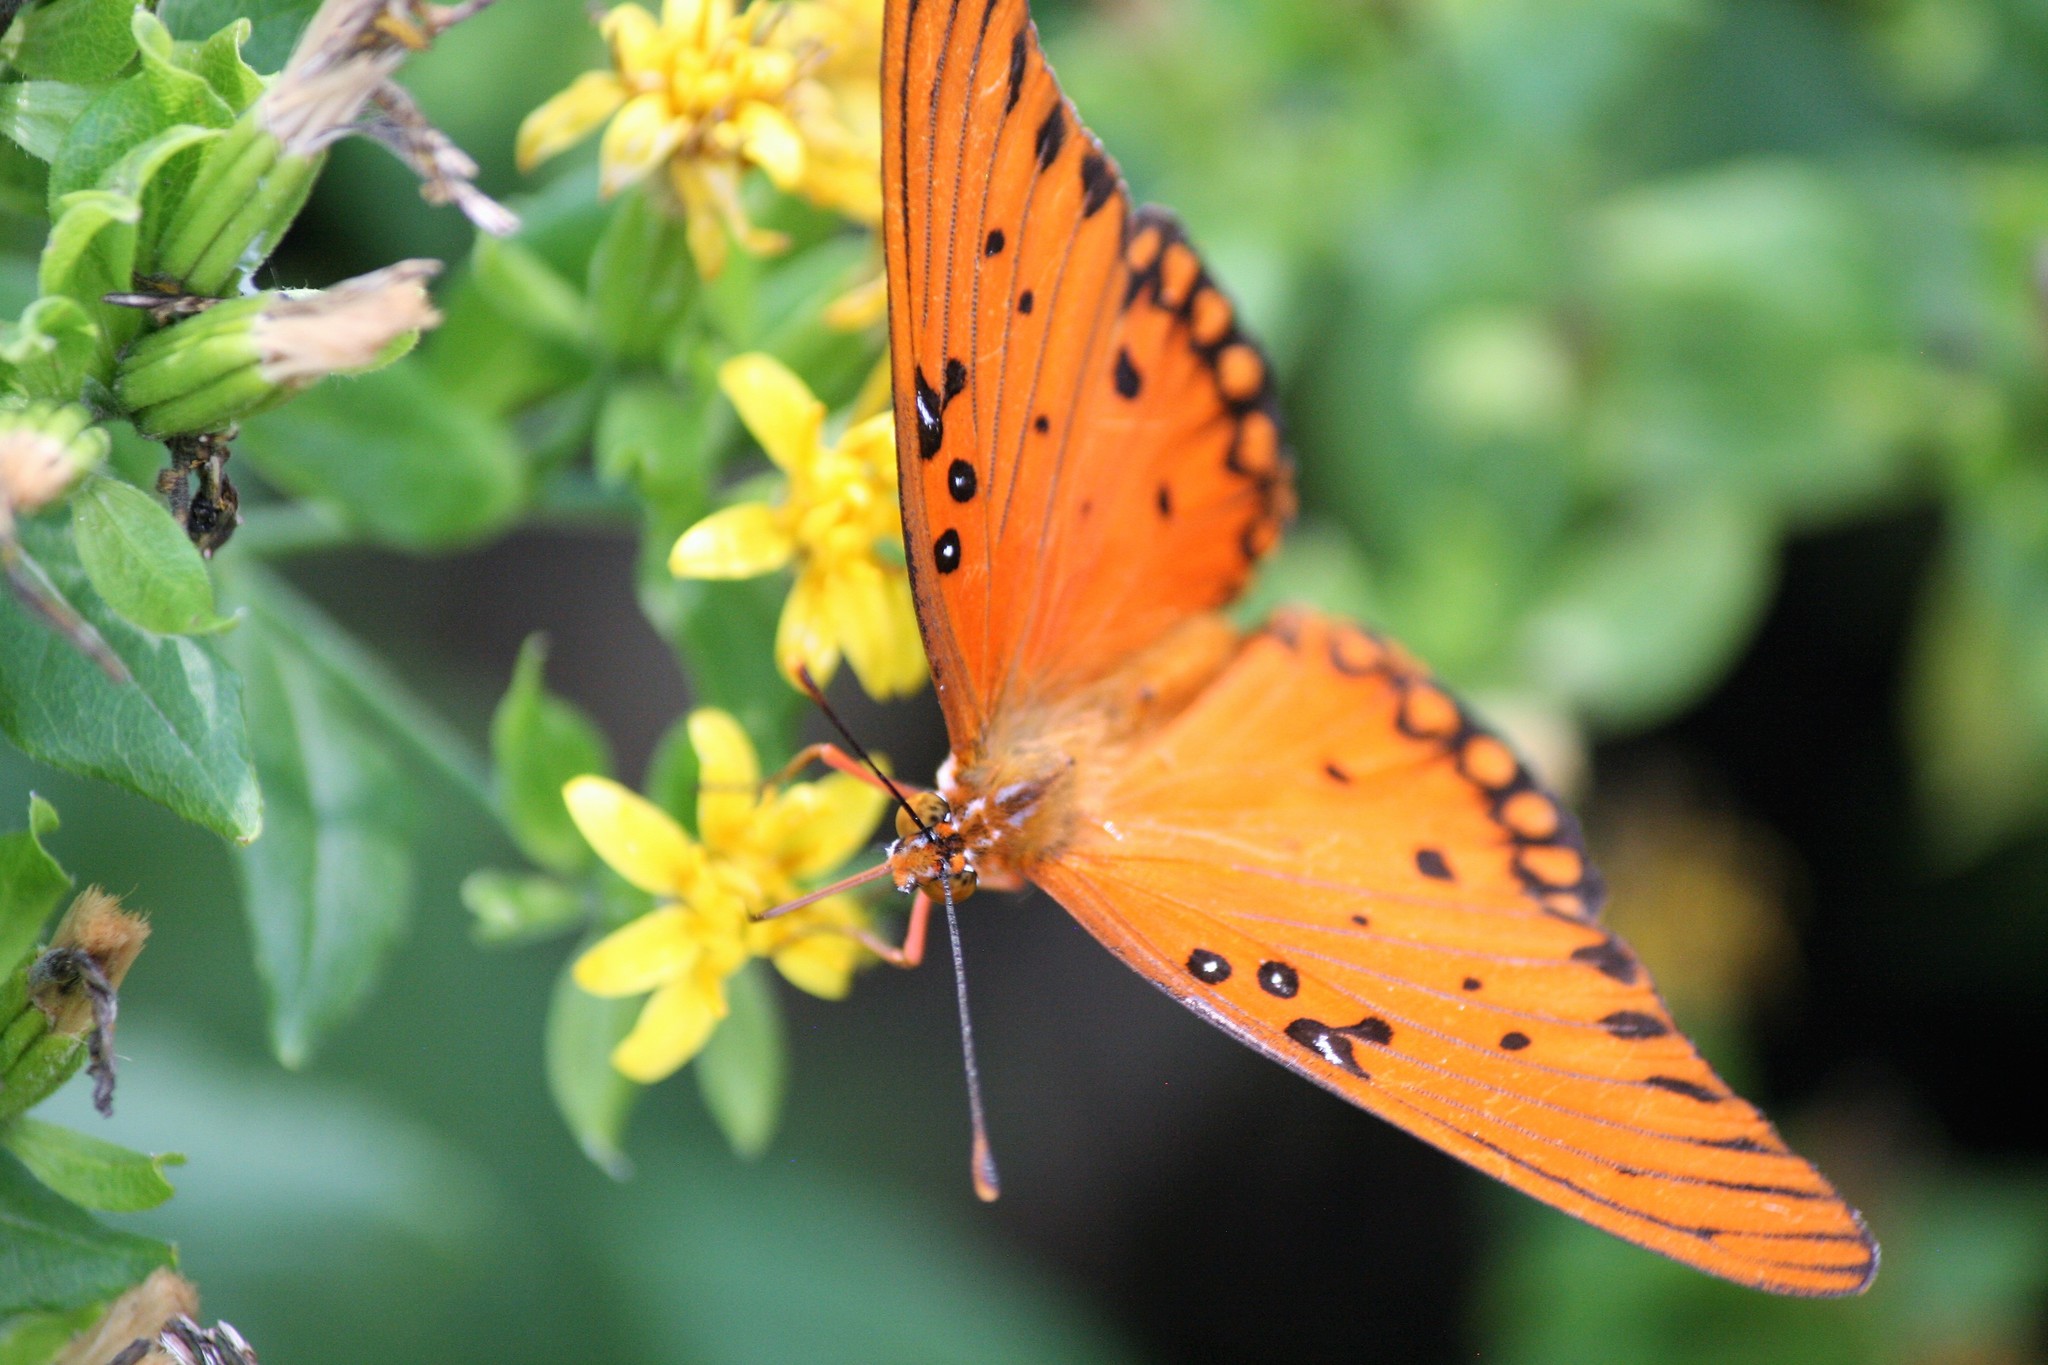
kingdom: Animalia
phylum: Arthropoda
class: Insecta
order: Lepidoptera
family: Nymphalidae
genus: Dione
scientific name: Dione vanillae
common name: Gulf fritillary
